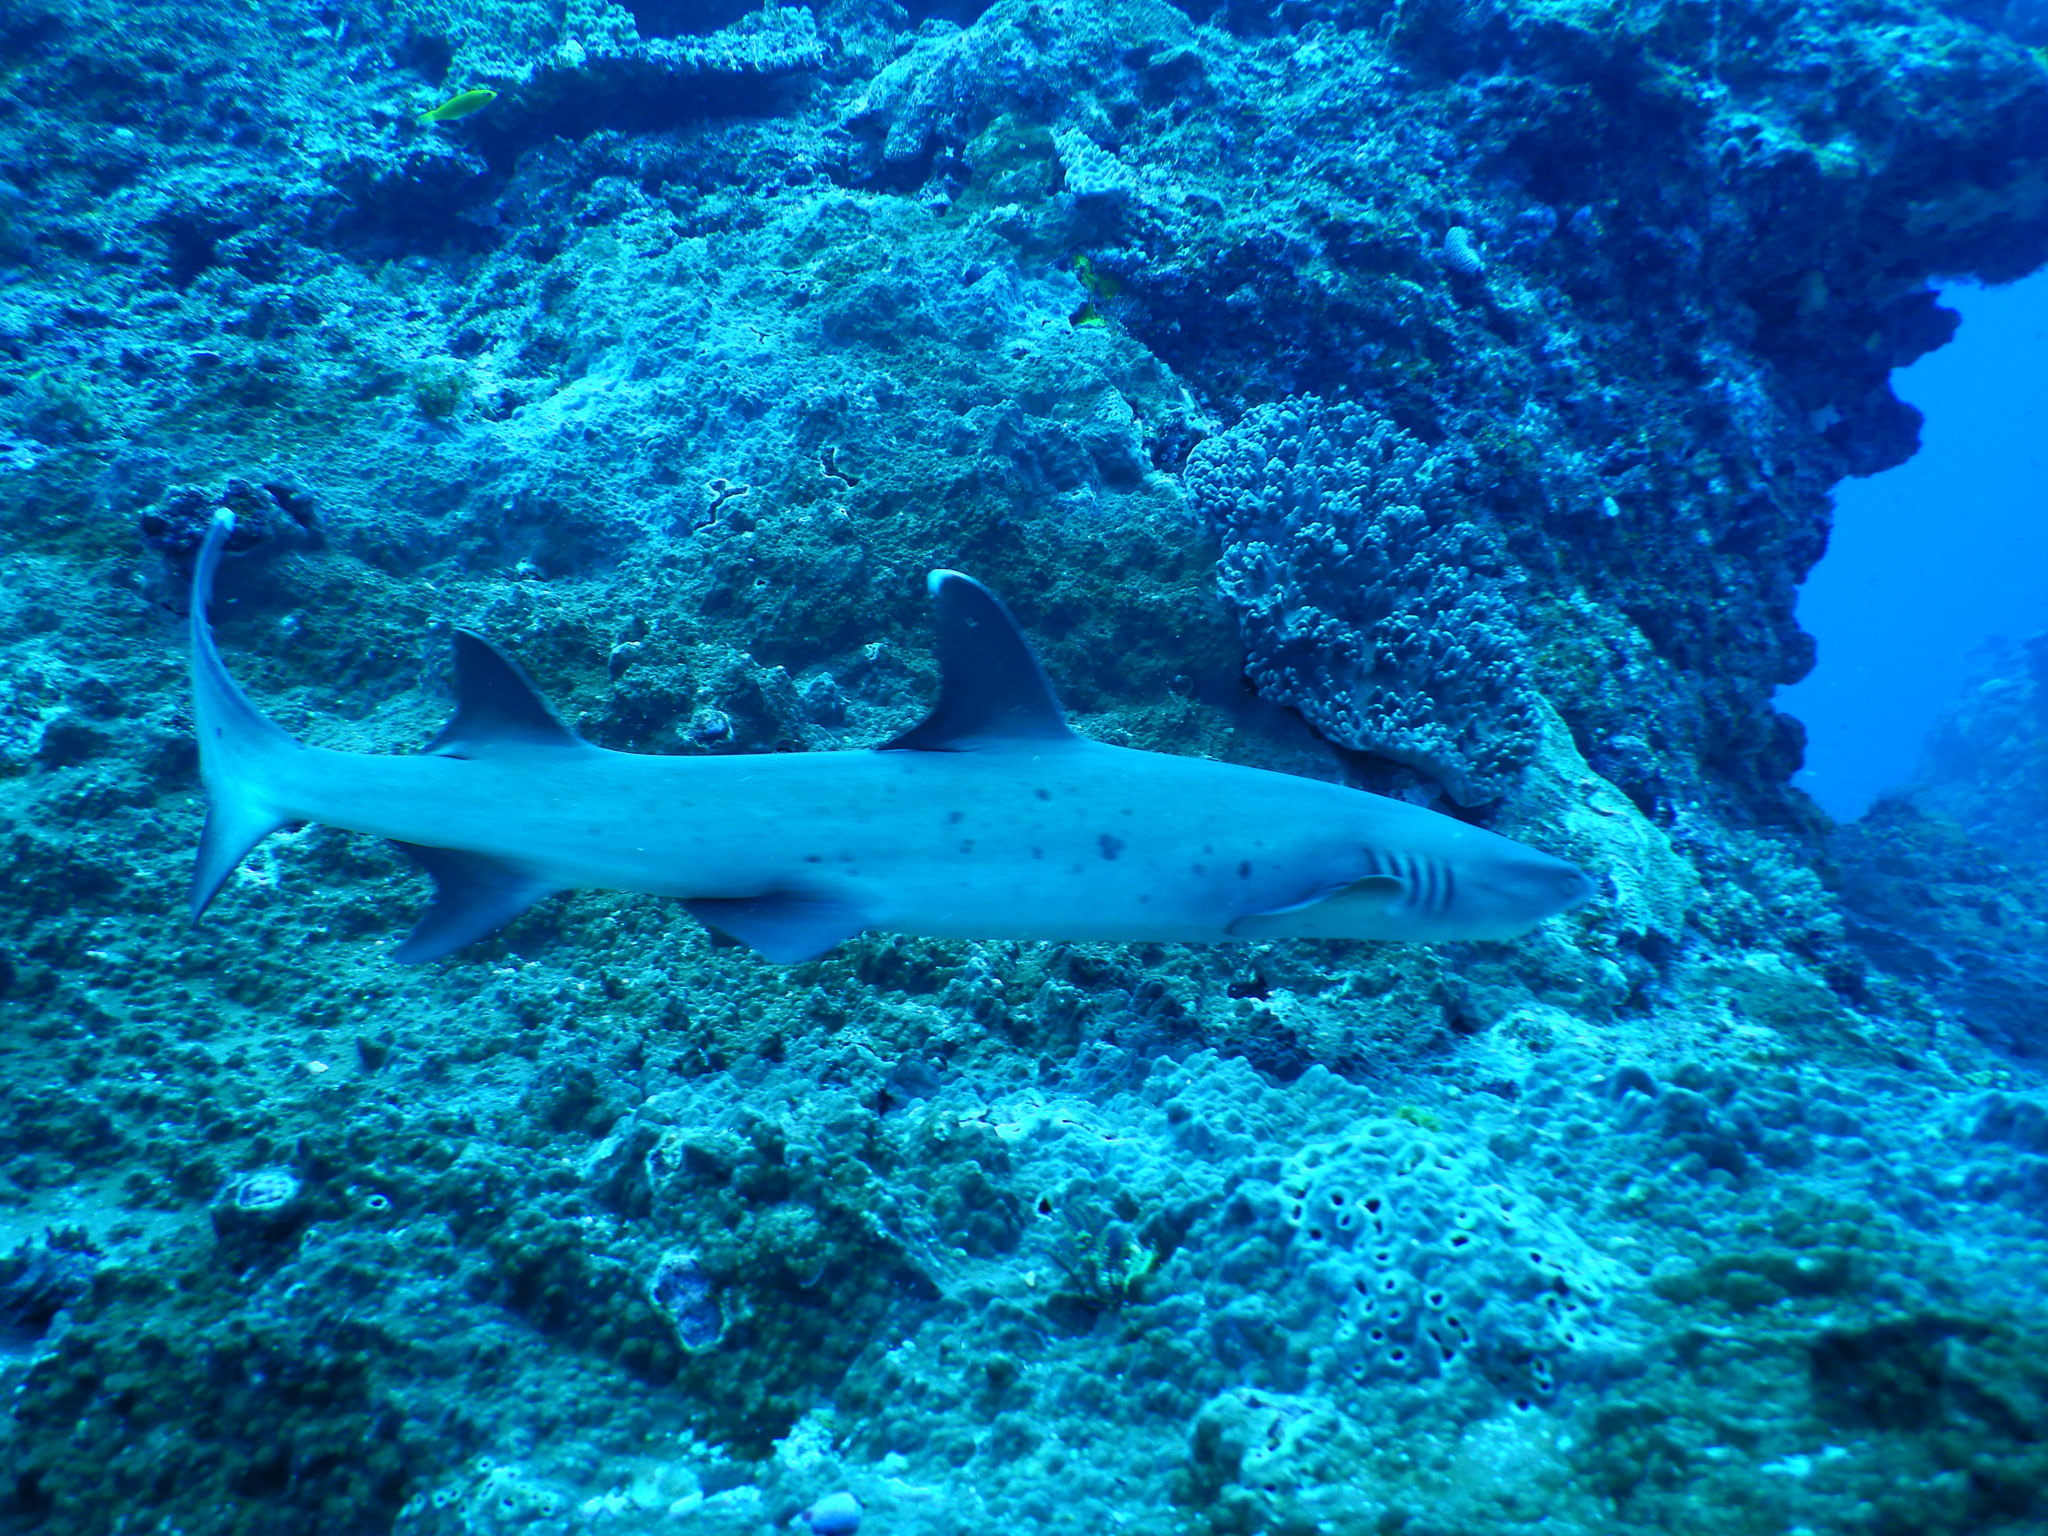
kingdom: Animalia
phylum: Chordata
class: Elasmobranchii
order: Carcharhiniformes
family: Carcharhinidae
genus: Triaenodon
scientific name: Triaenodon obesus
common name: Whitetip reef shark
